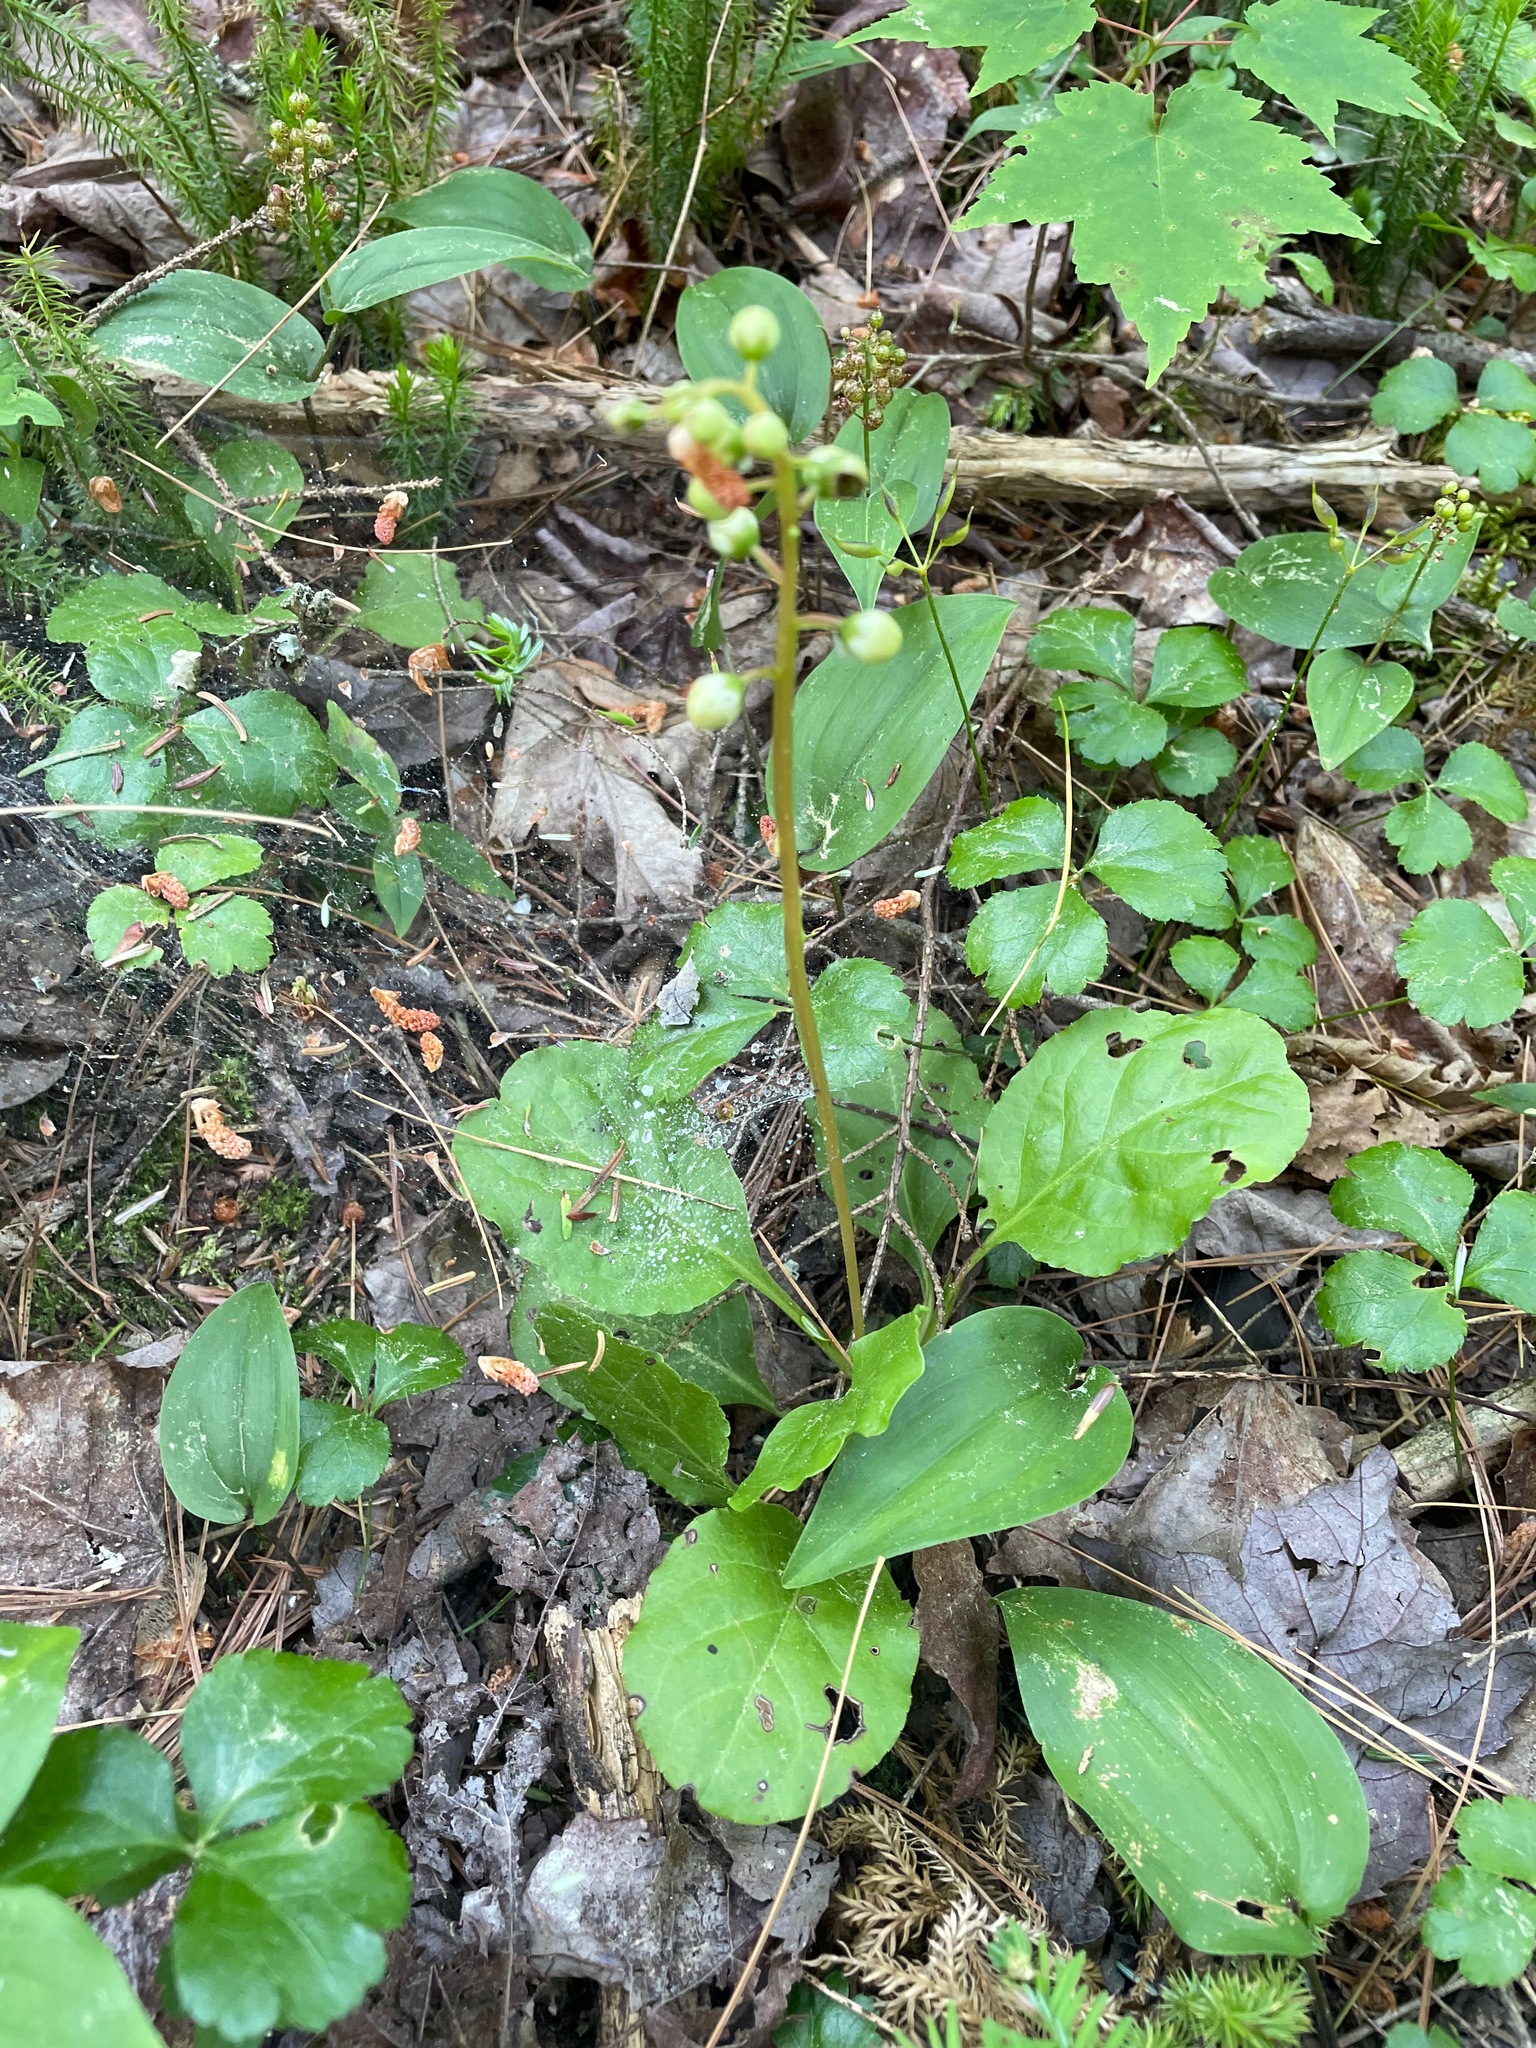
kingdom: Plantae
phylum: Tracheophyta
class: Magnoliopsida
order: Ericales
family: Ericaceae
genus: Pyrola
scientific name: Pyrola elliptica
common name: Shinleaf
